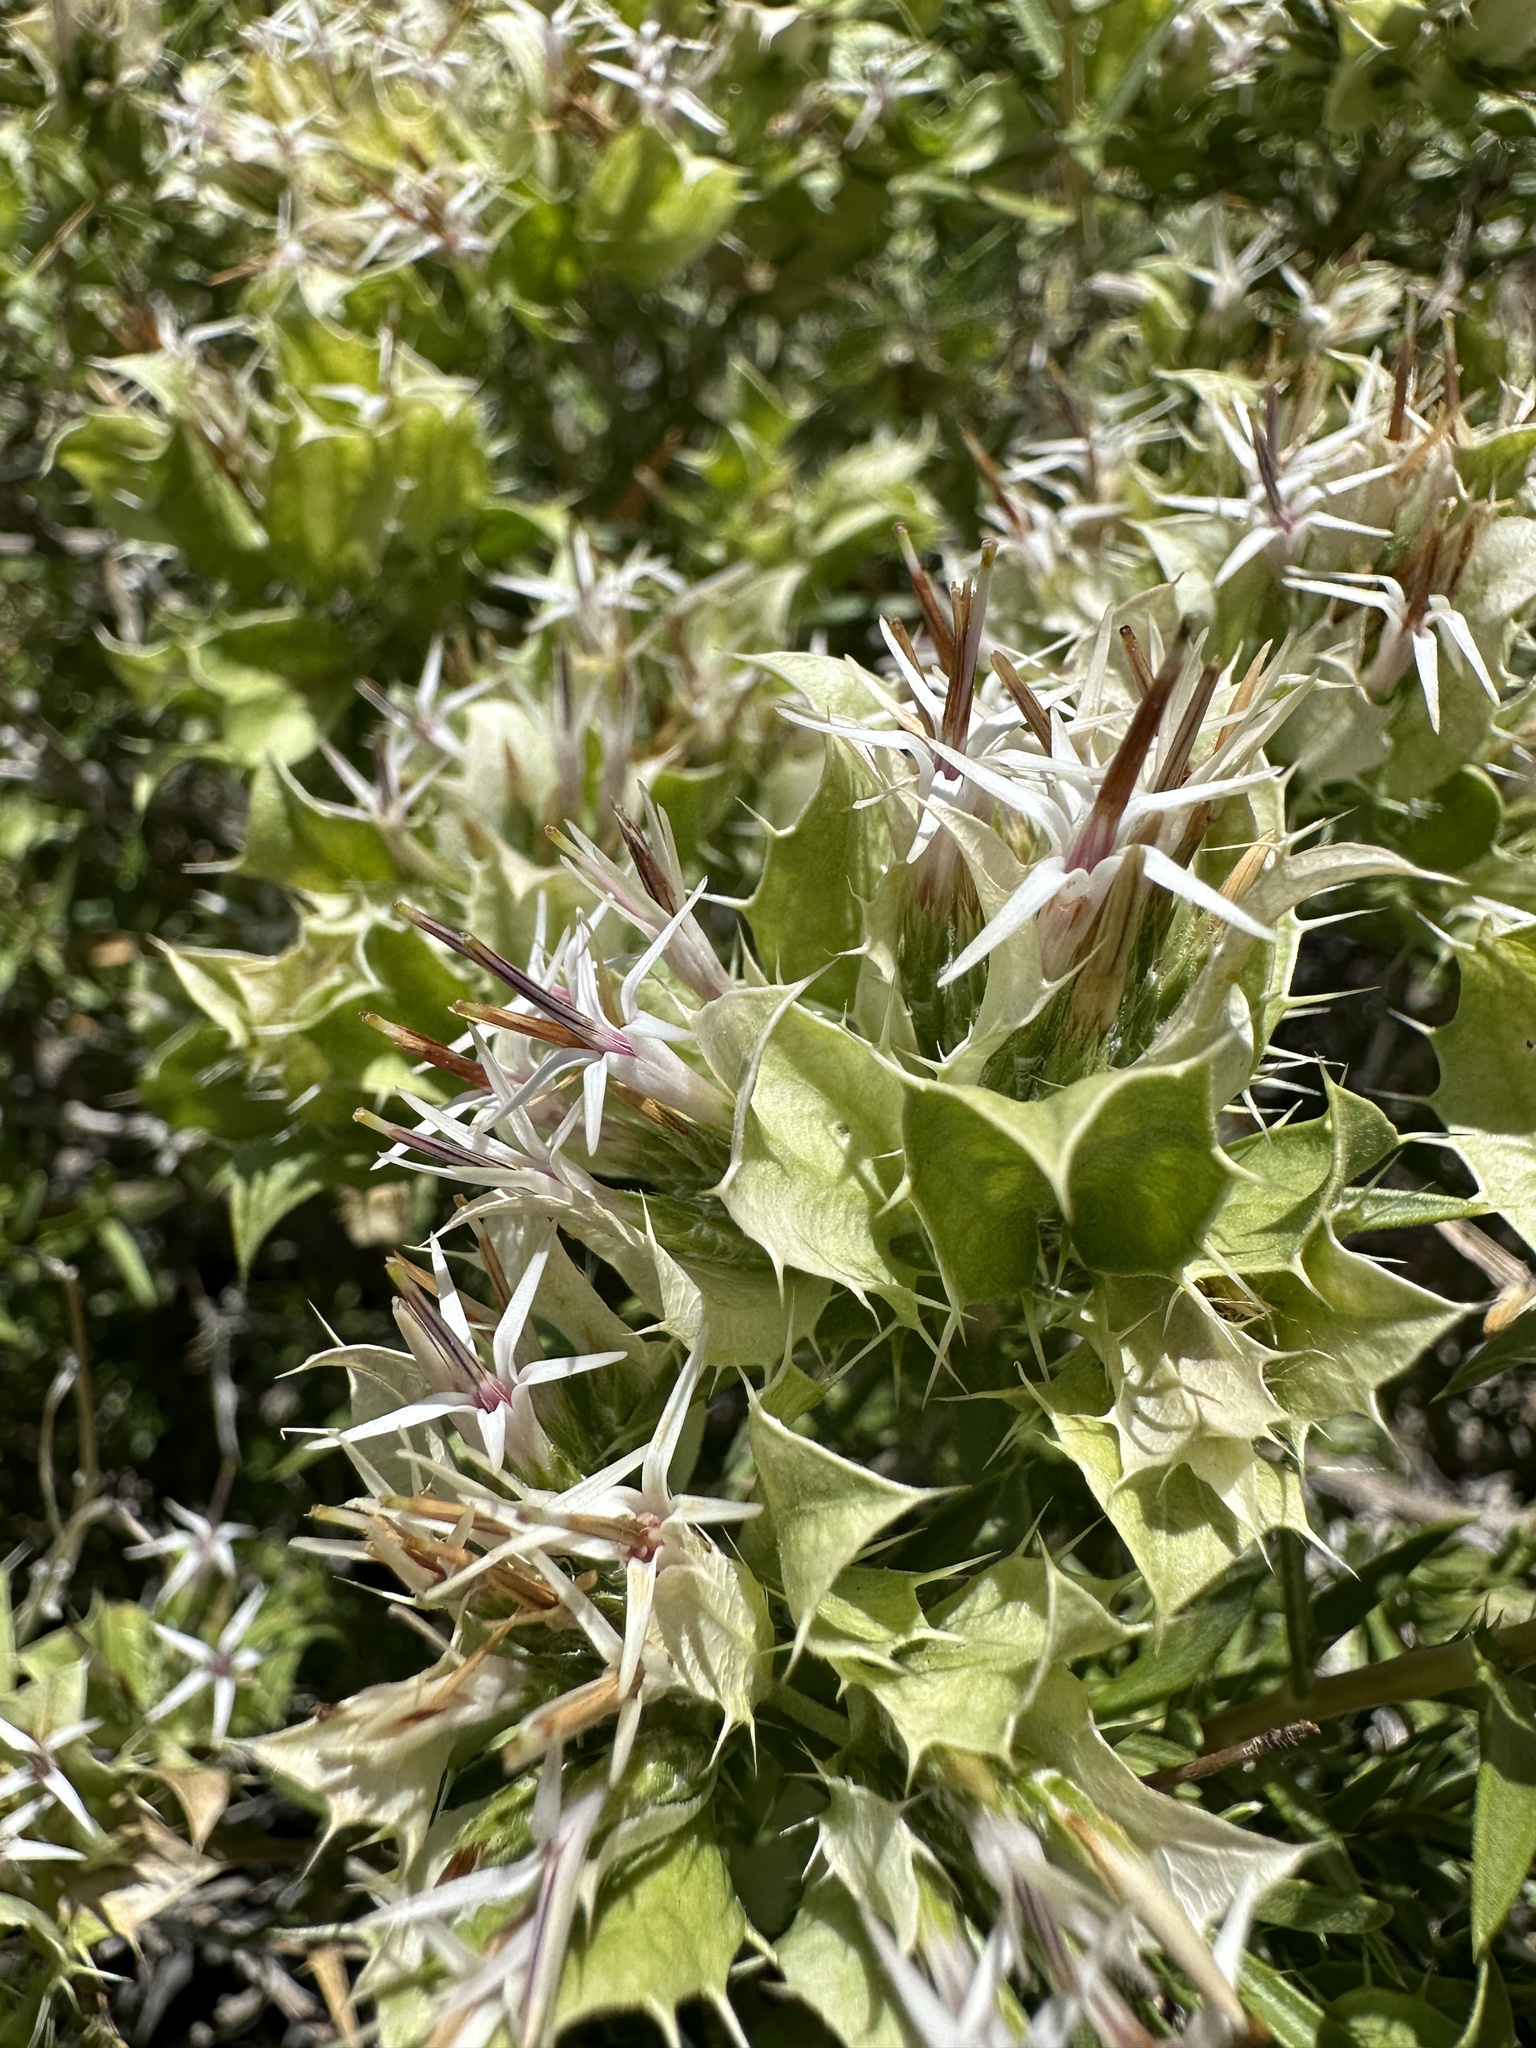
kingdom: Plantae
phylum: Tracheophyta
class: Magnoliopsida
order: Asterales
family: Asteraceae
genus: Hecastocleis
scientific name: Hecastocleis shockleyi
